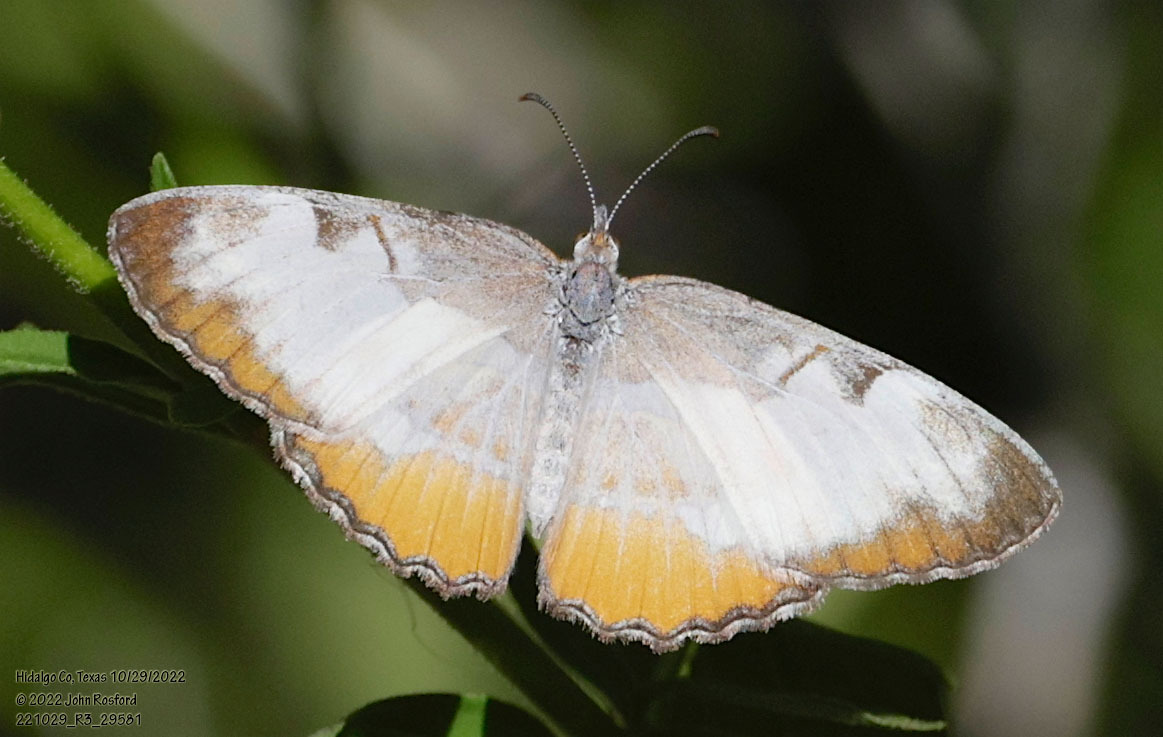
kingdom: Animalia
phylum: Arthropoda
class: Insecta
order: Lepidoptera
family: Nymphalidae
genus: Mestra
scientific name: Mestra amymone
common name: Common mestra
